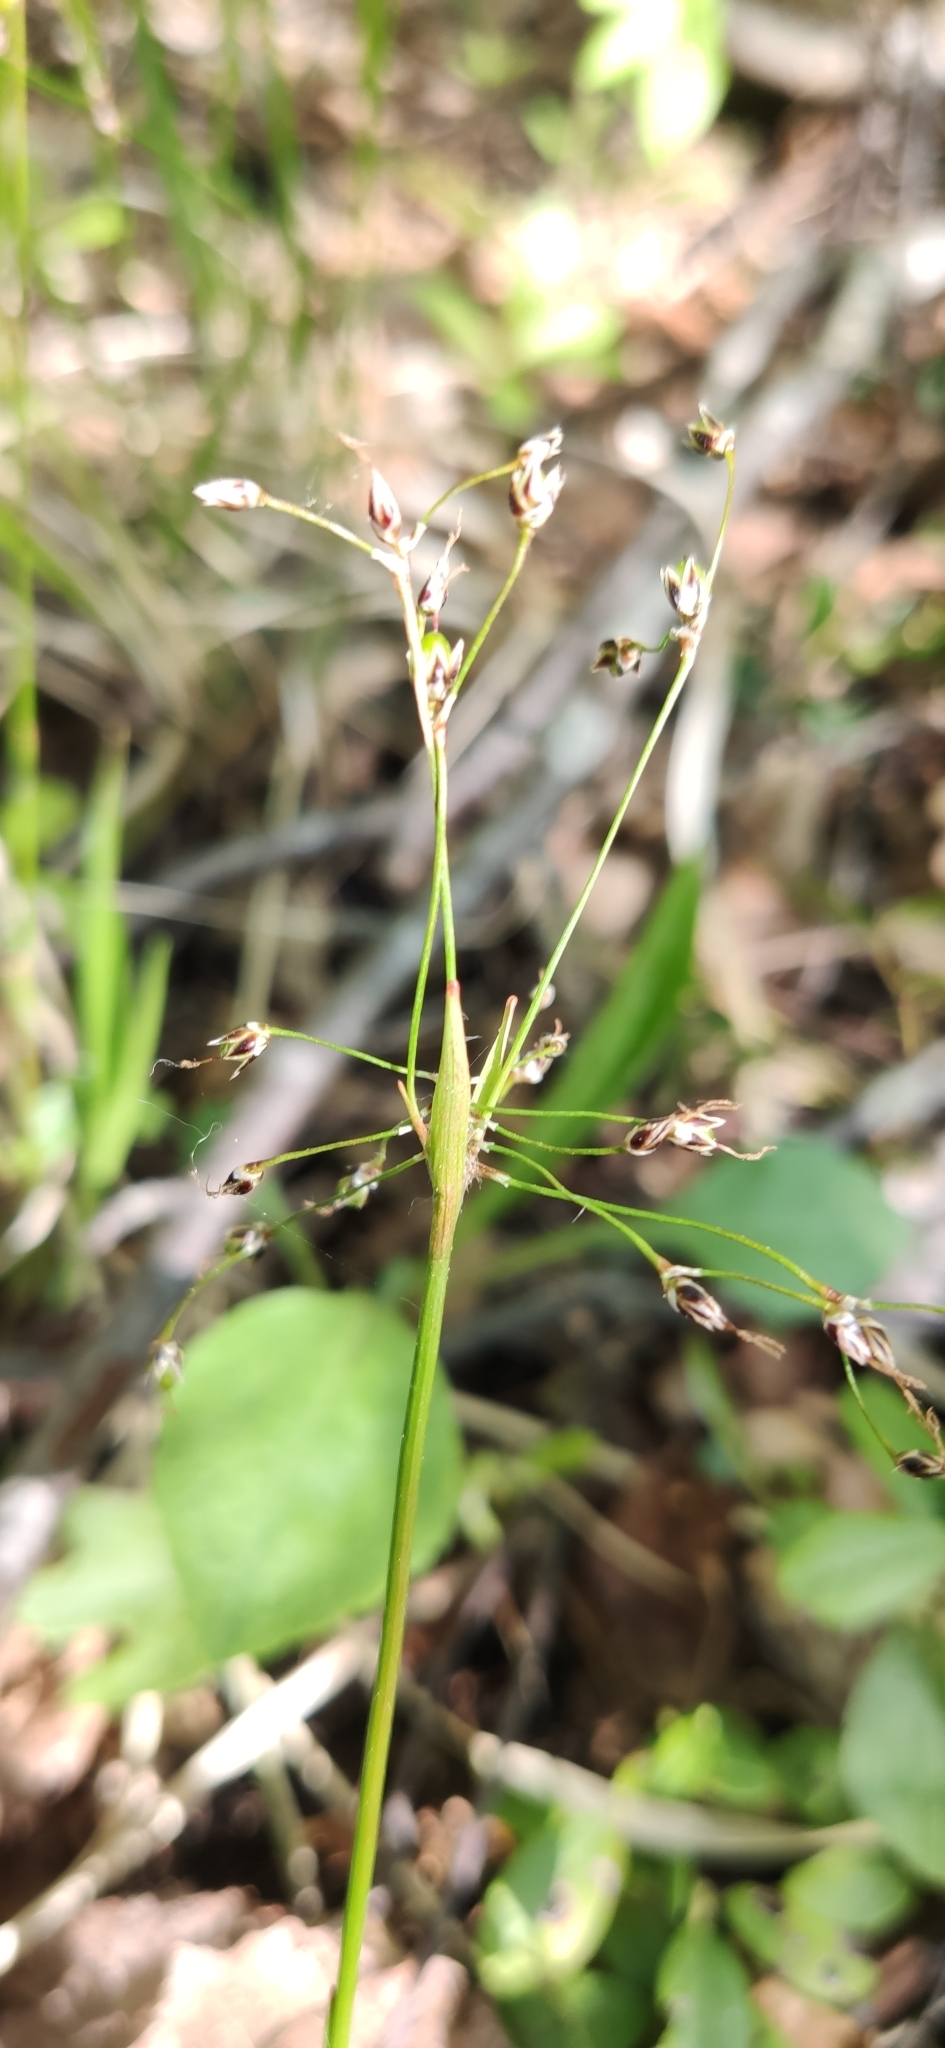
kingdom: Plantae
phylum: Tracheophyta
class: Liliopsida
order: Poales
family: Juncaceae
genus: Luzula
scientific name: Luzula pilosa
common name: Hairy wood-rush
